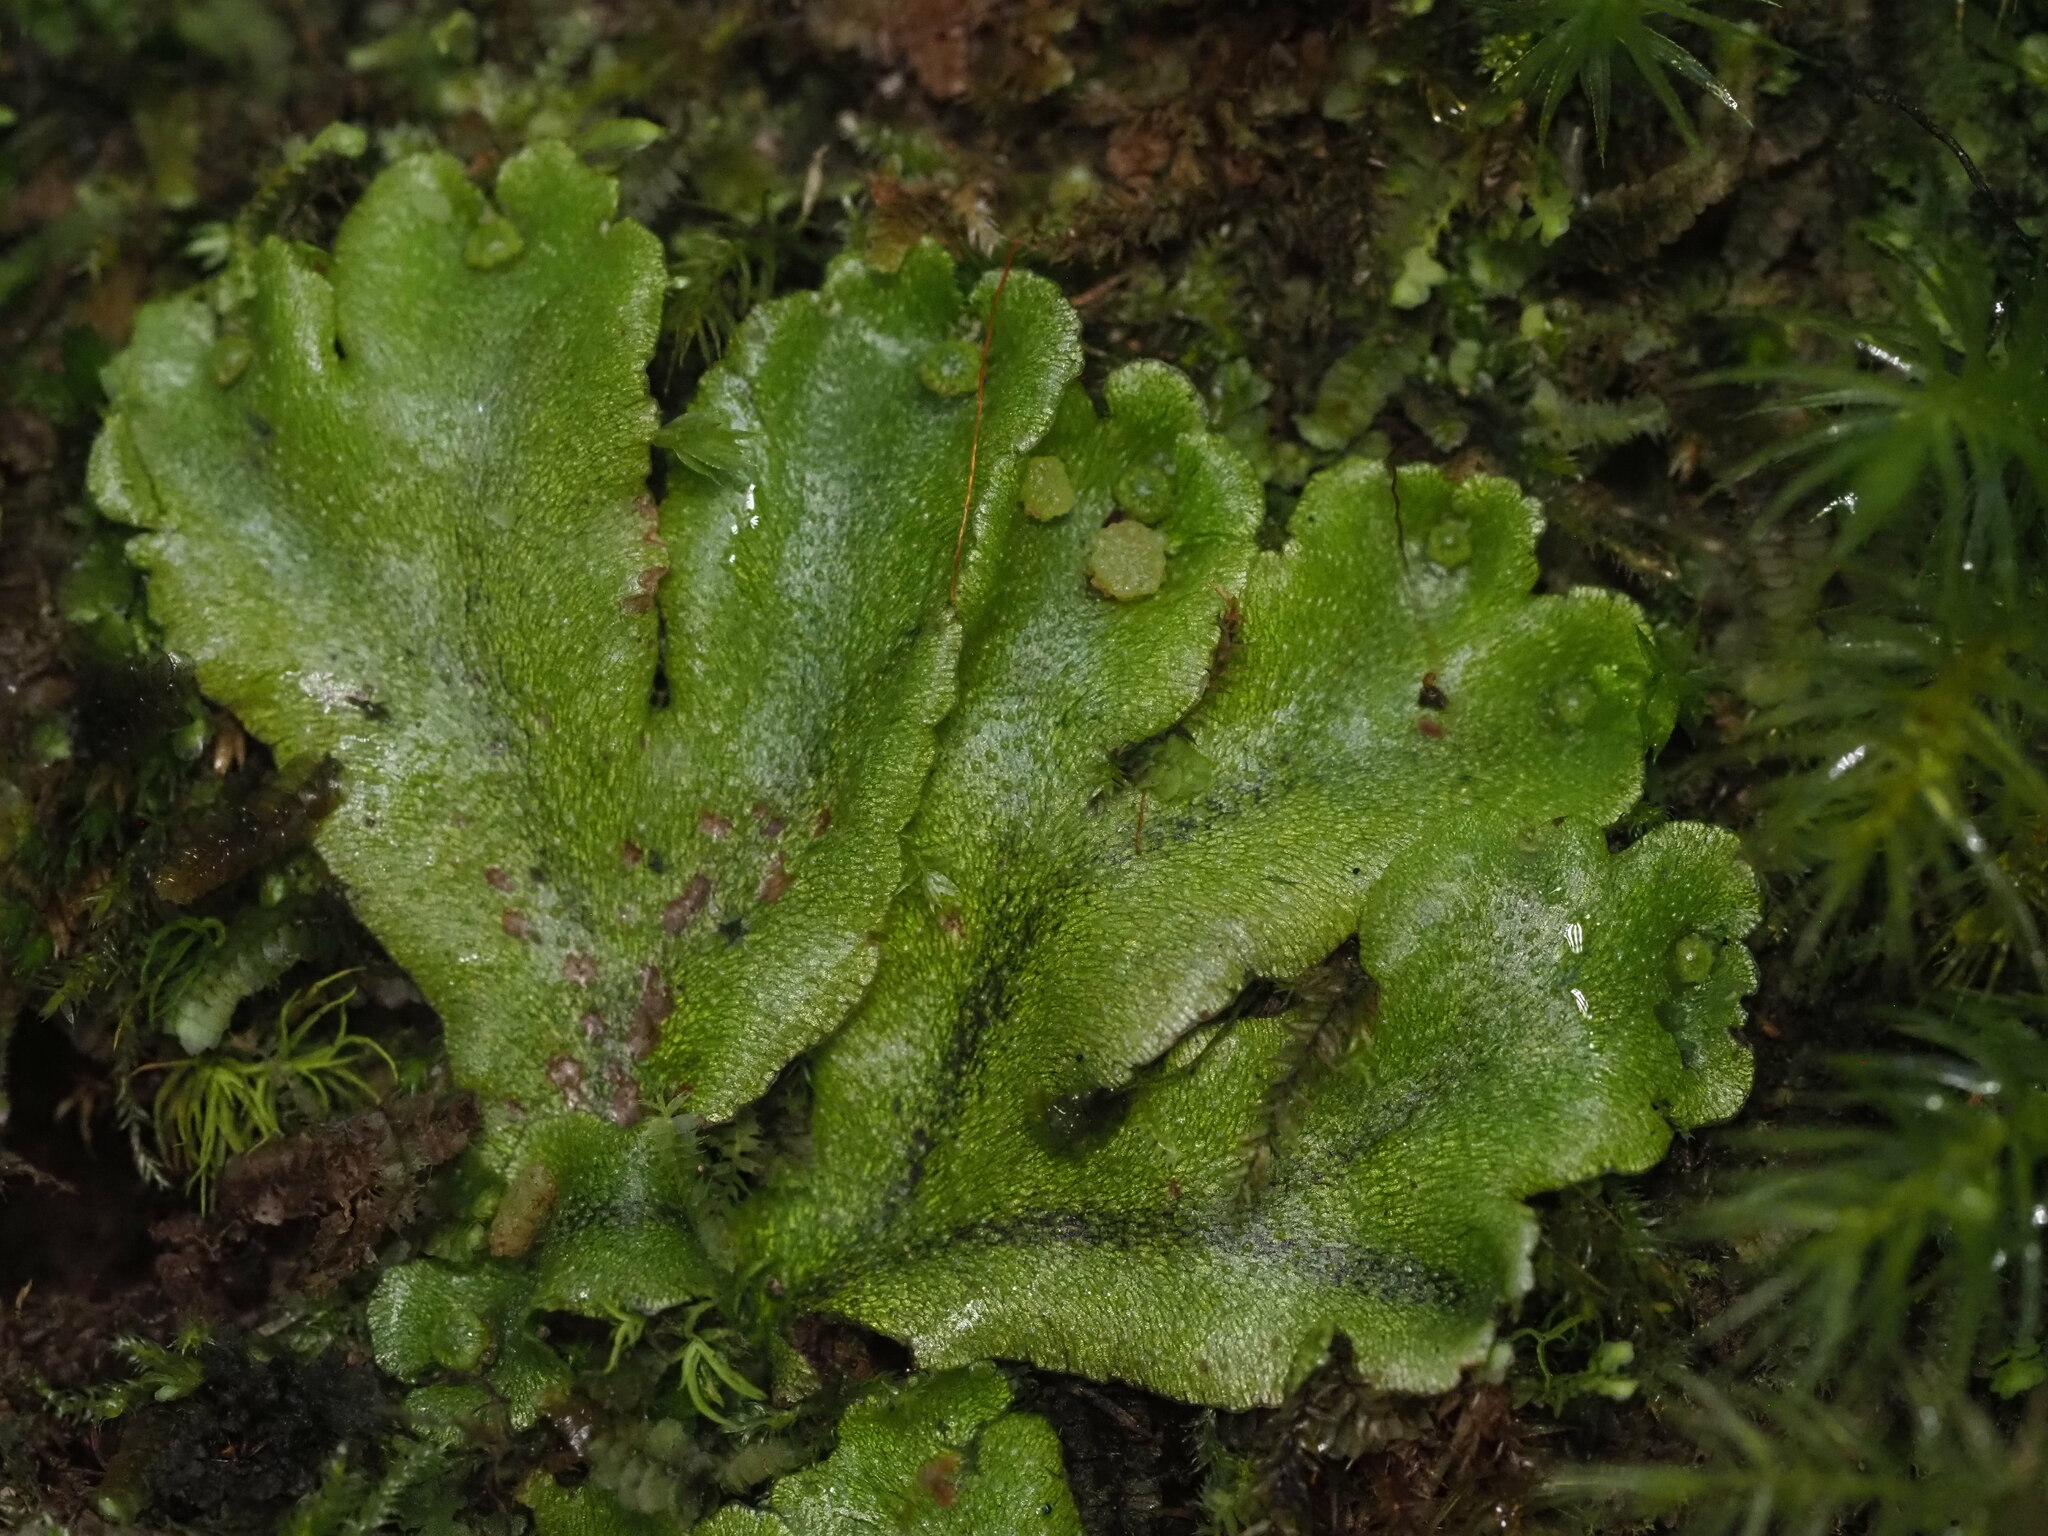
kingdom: Plantae
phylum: Marchantiophyta
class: Marchantiopsida
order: Marchantiales
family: Wiesnerellaceae
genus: Wiesnerella
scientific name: Wiesnerella denudata
